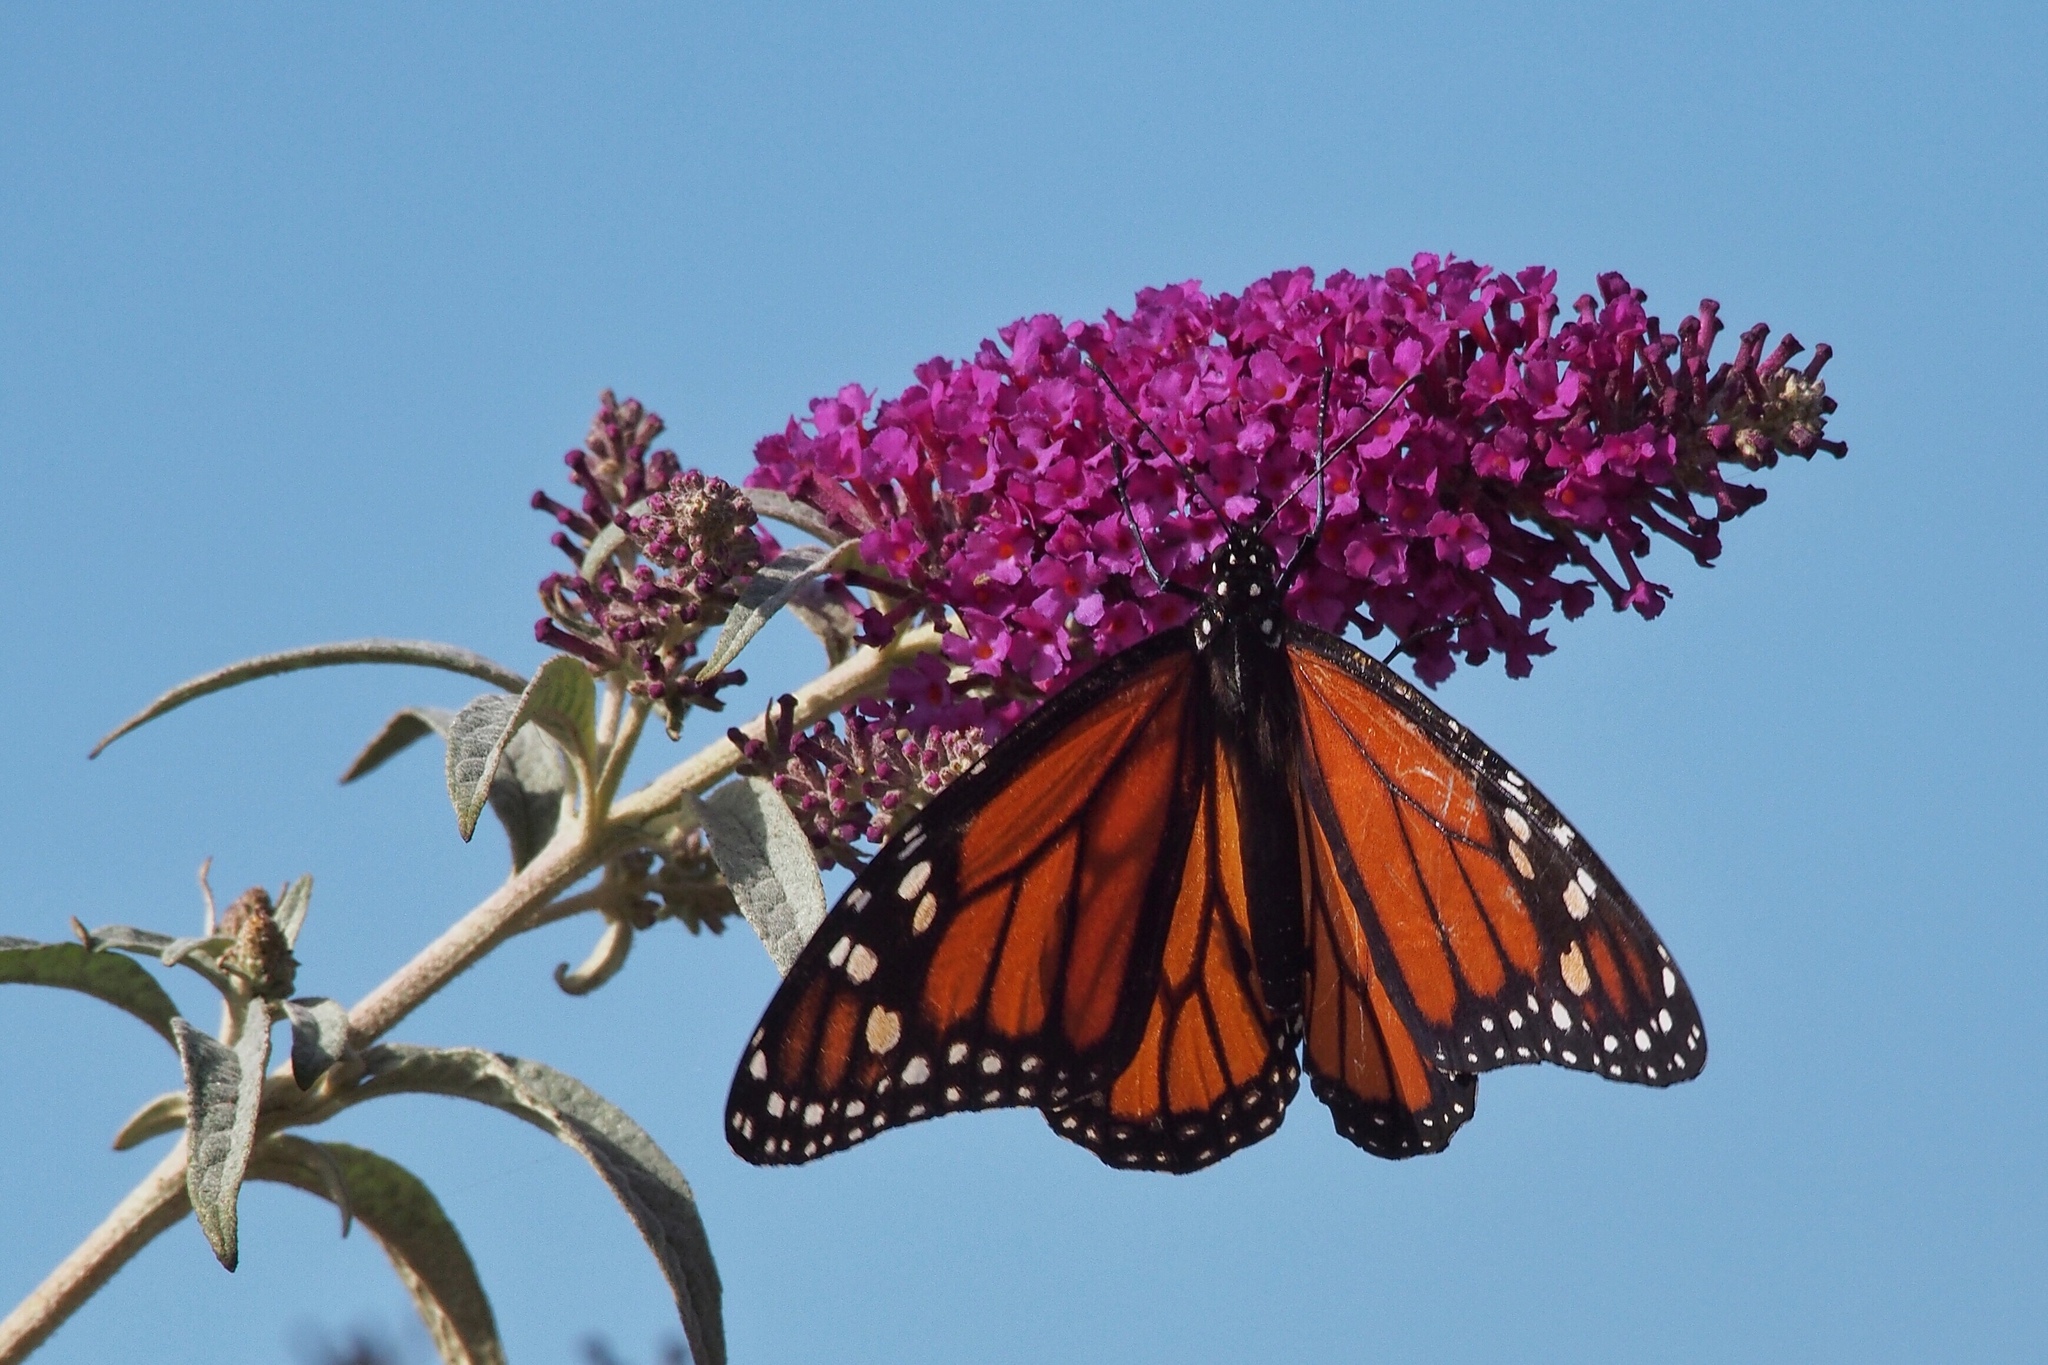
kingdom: Animalia
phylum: Arthropoda
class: Insecta
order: Lepidoptera
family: Nymphalidae
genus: Danaus
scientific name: Danaus plexippus
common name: Monarch
